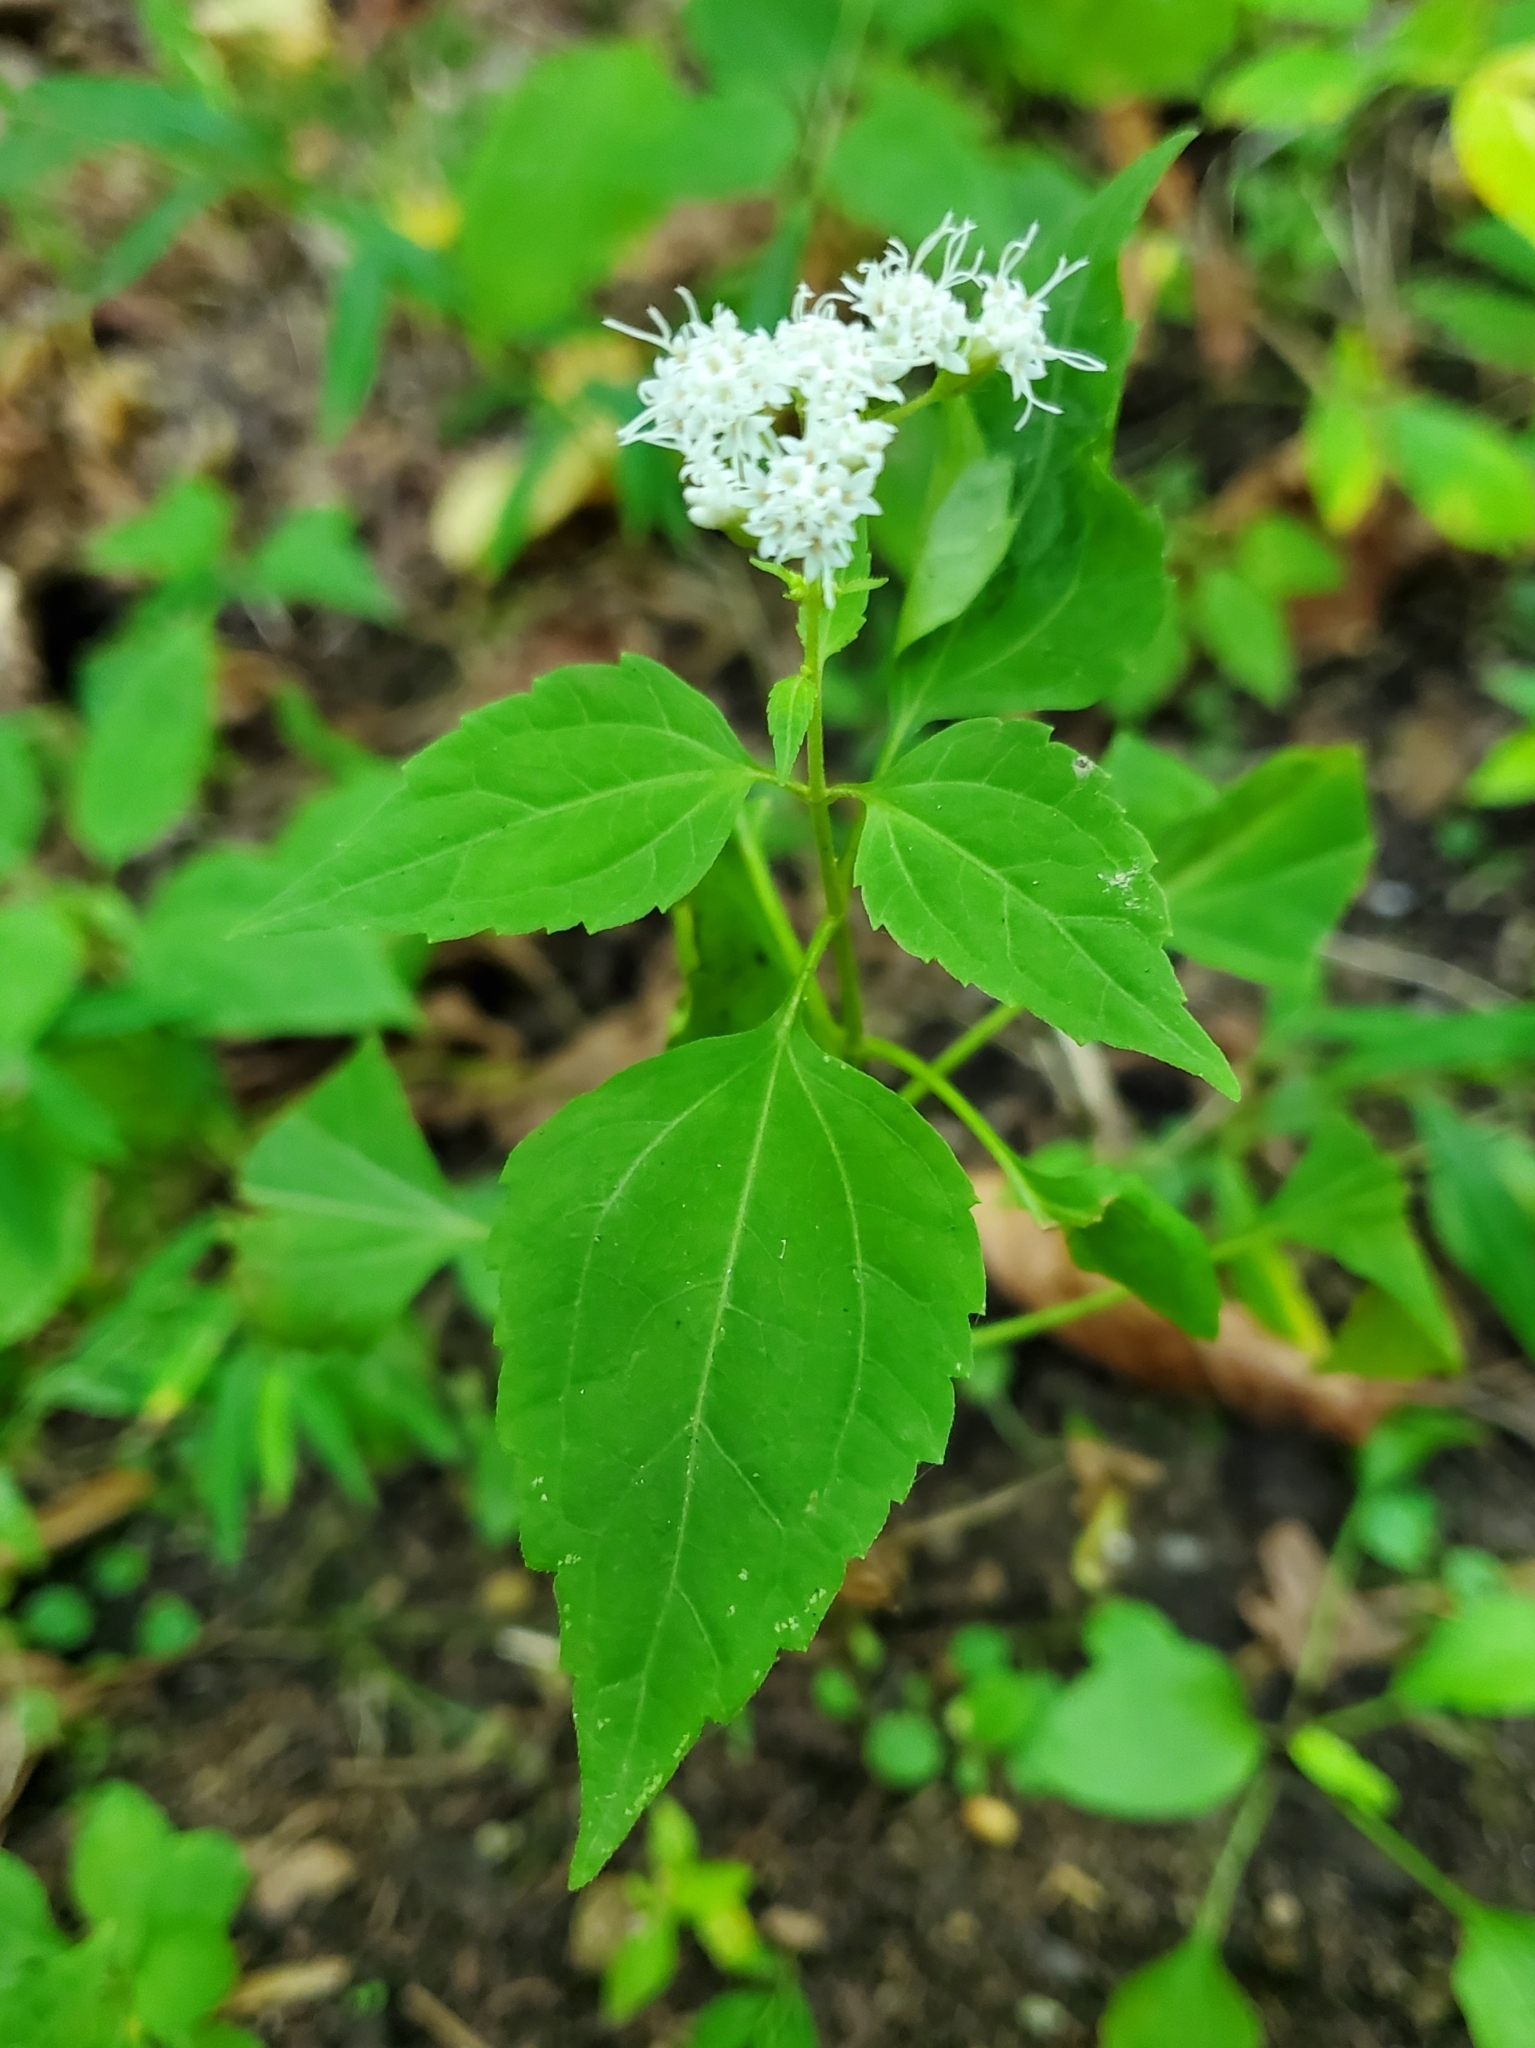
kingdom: Plantae
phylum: Tracheophyta
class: Magnoliopsida
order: Asterales
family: Asteraceae
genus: Ageratina
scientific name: Ageratina altissima
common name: White snakeroot
